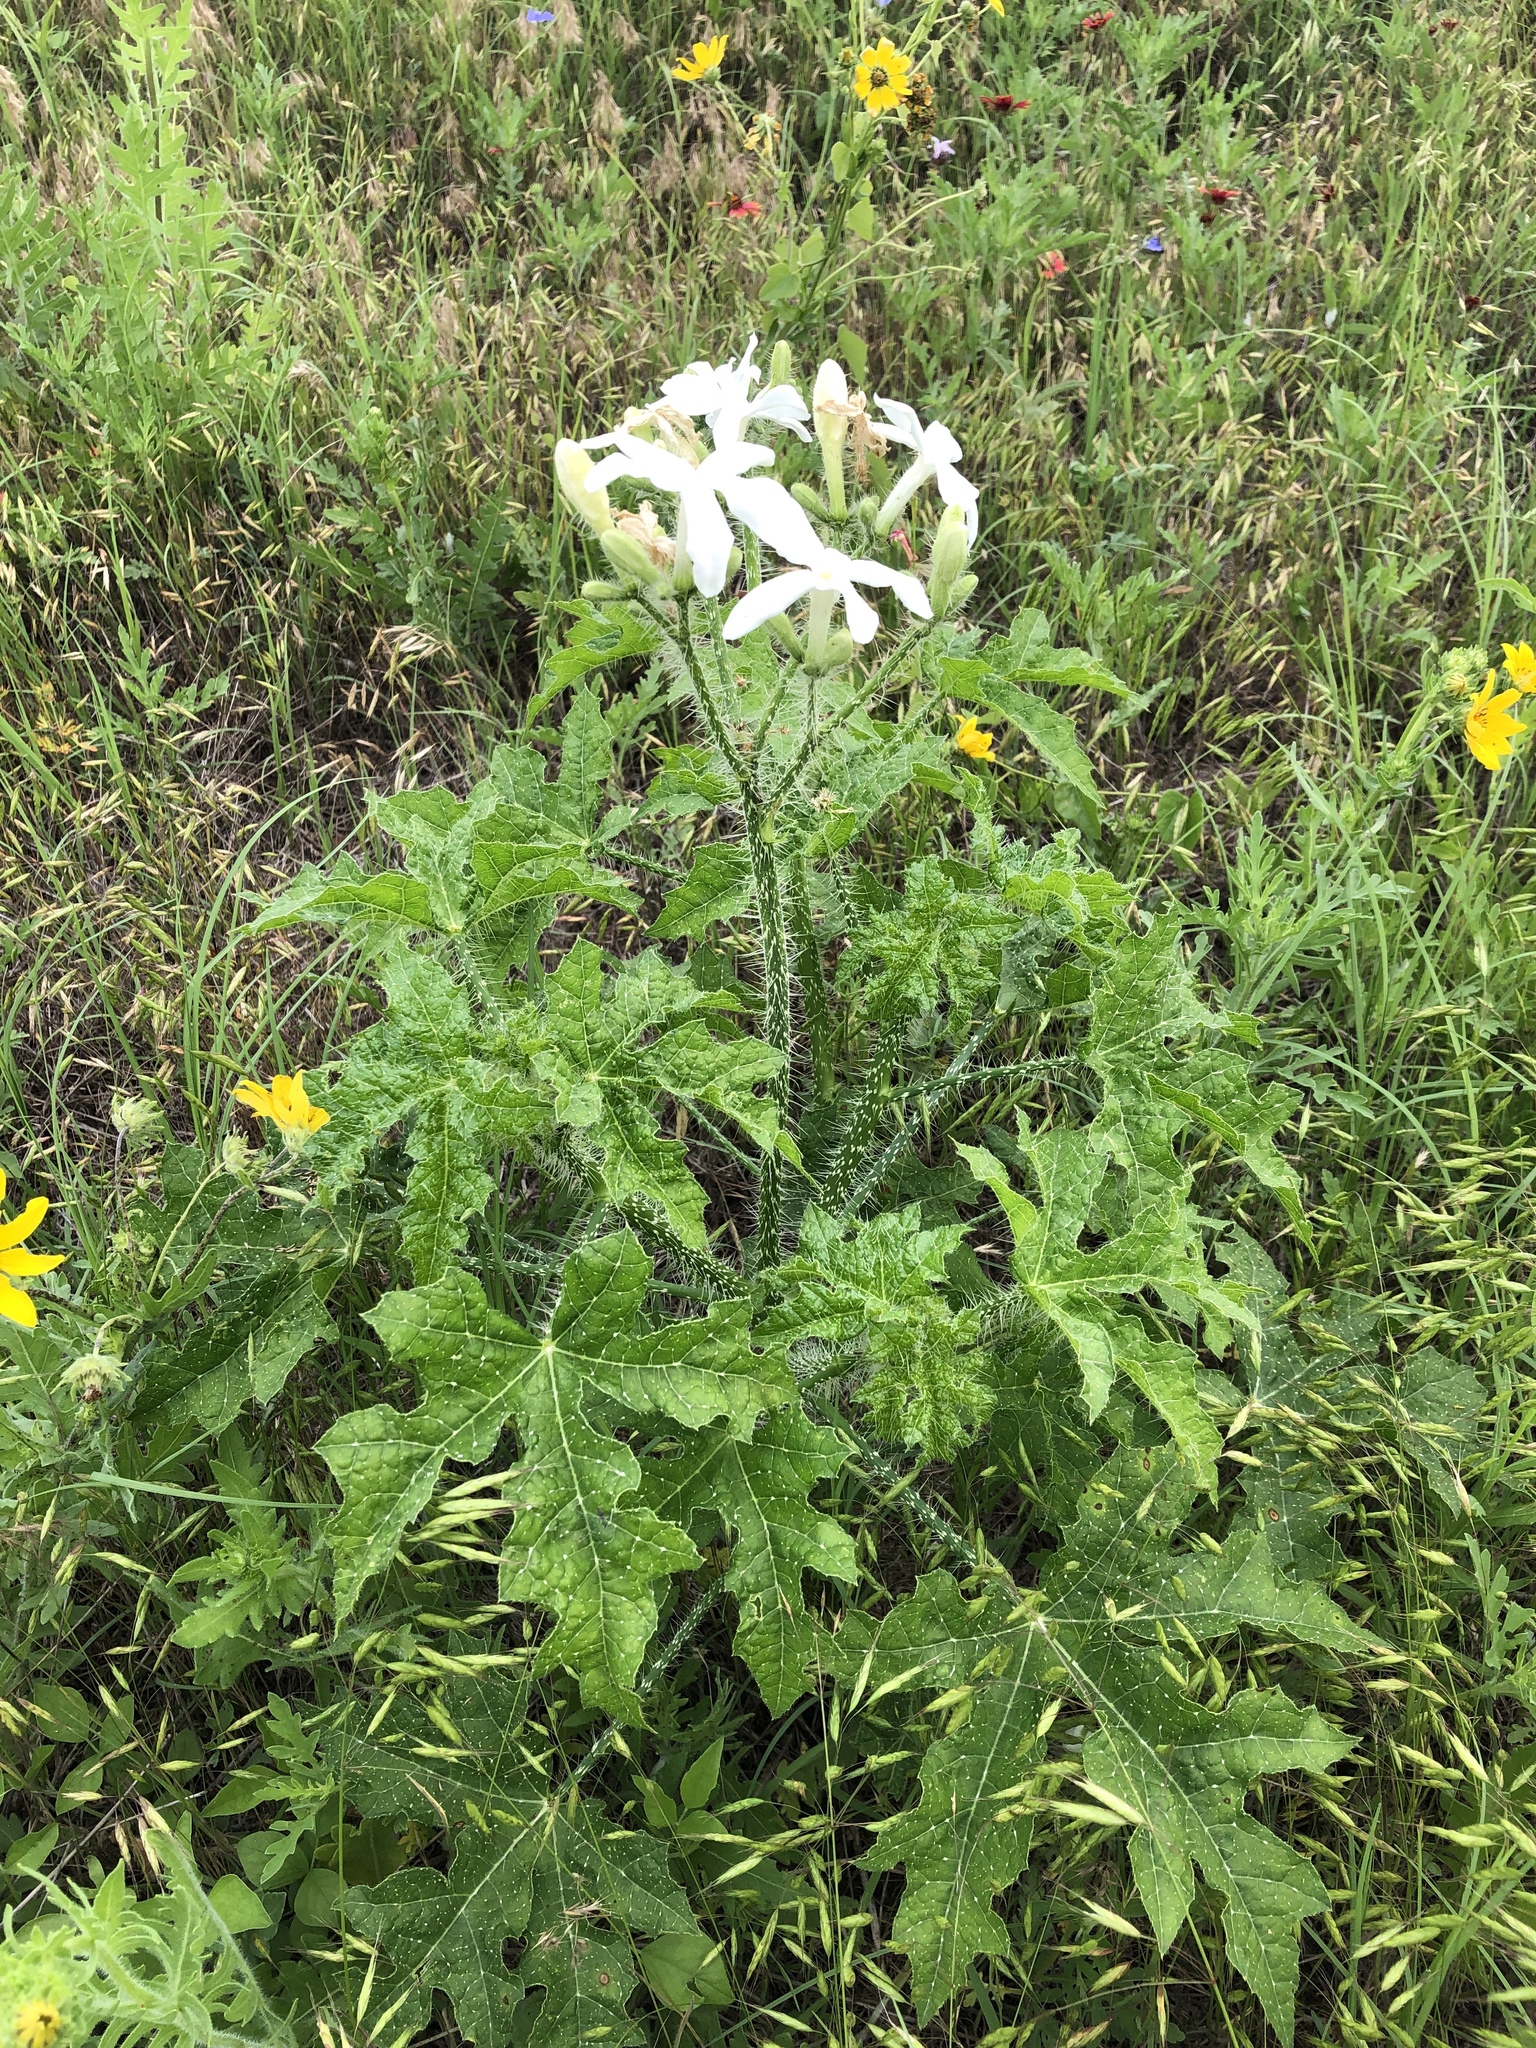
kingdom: Plantae
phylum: Tracheophyta
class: Magnoliopsida
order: Malpighiales
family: Euphorbiaceae
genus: Cnidoscolus
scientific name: Cnidoscolus texanus
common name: Texas bull-nettle
